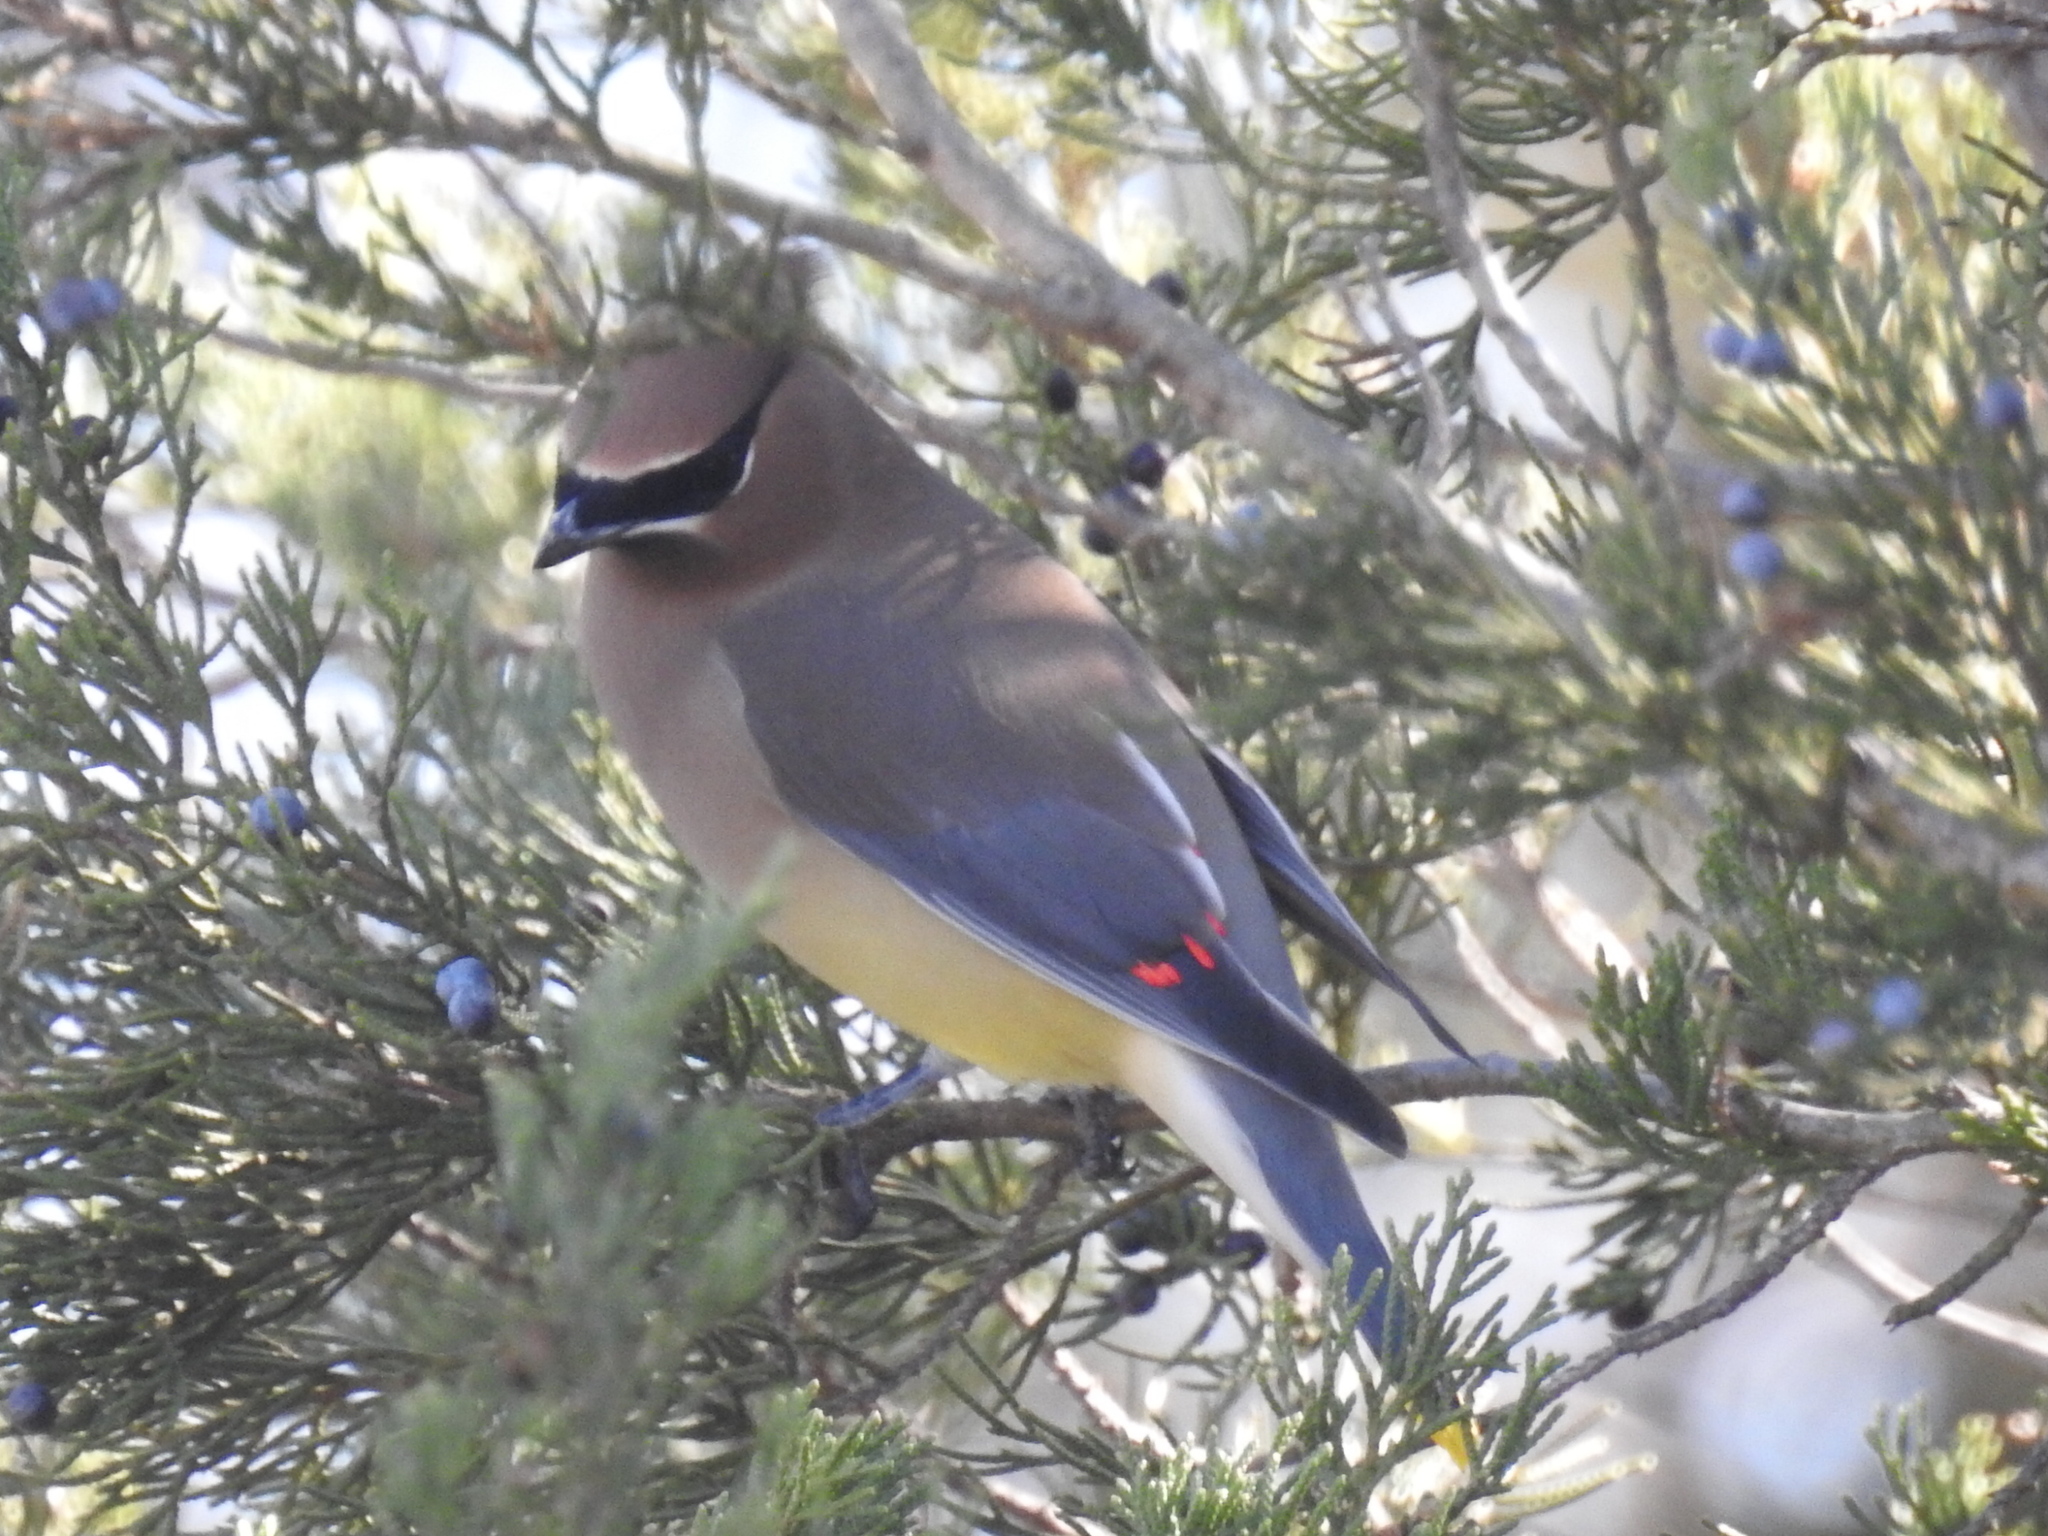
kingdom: Animalia
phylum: Chordata
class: Aves
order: Passeriformes
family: Bombycillidae
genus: Bombycilla
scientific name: Bombycilla cedrorum
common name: Cedar waxwing
